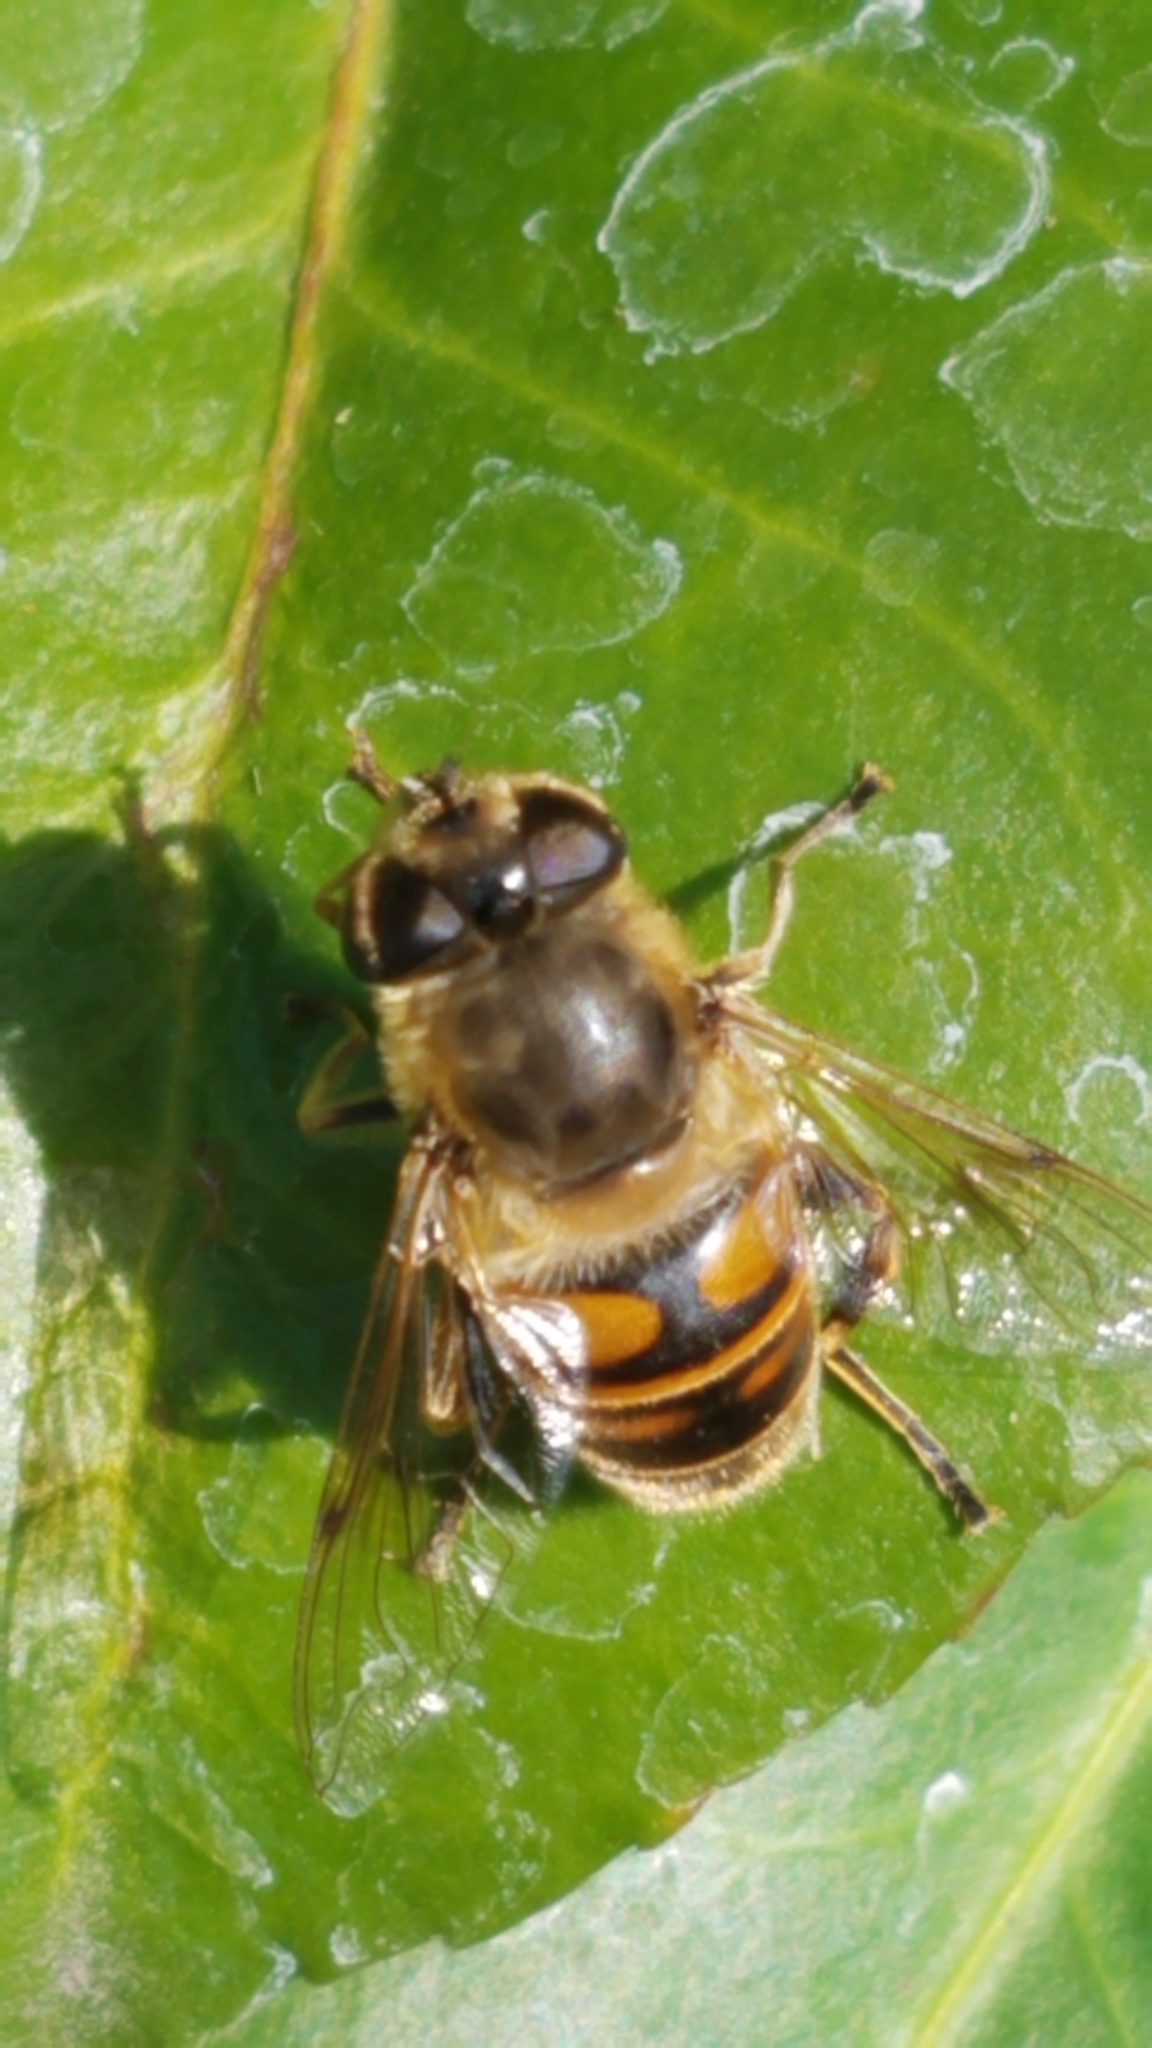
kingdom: Animalia
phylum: Arthropoda
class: Insecta
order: Diptera
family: Syrphidae
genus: Eristalis
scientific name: Eristalis tenax
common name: Drone fly
